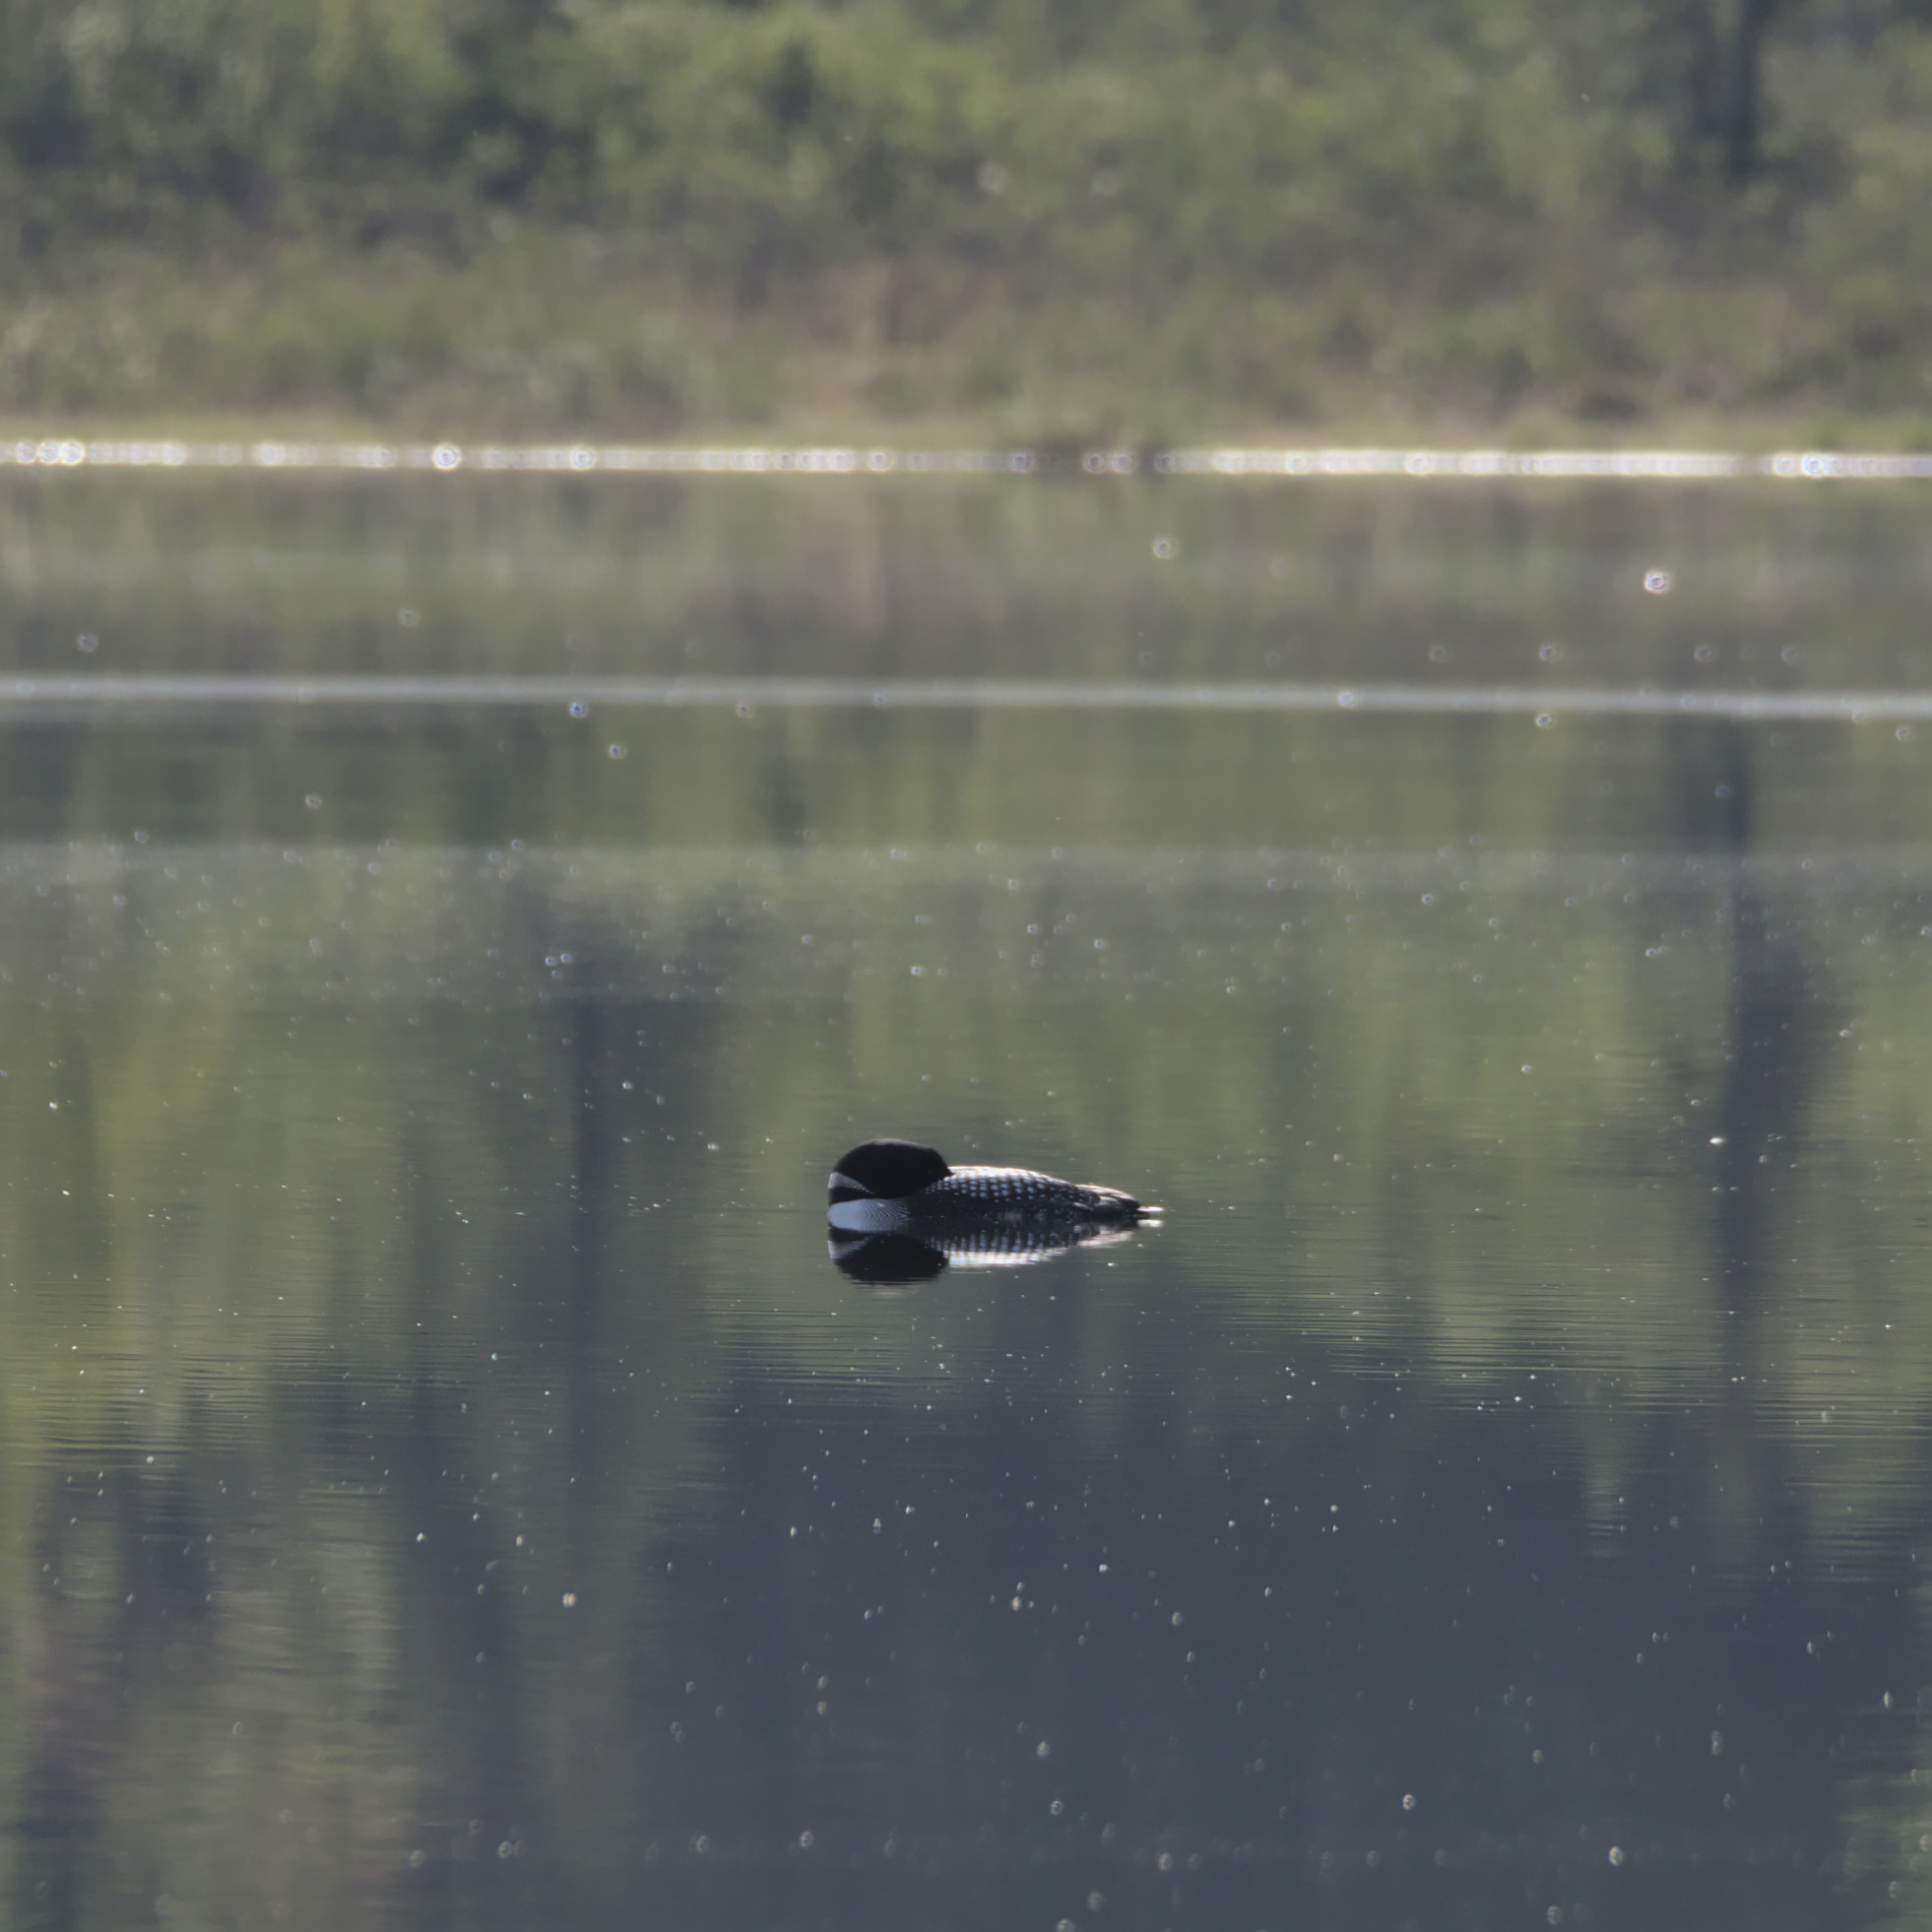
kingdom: Animalia
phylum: Chordata
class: Aves
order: Gaviiformes
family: Gaviidae
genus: Gavia
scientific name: Gavia immer
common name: Common loon
